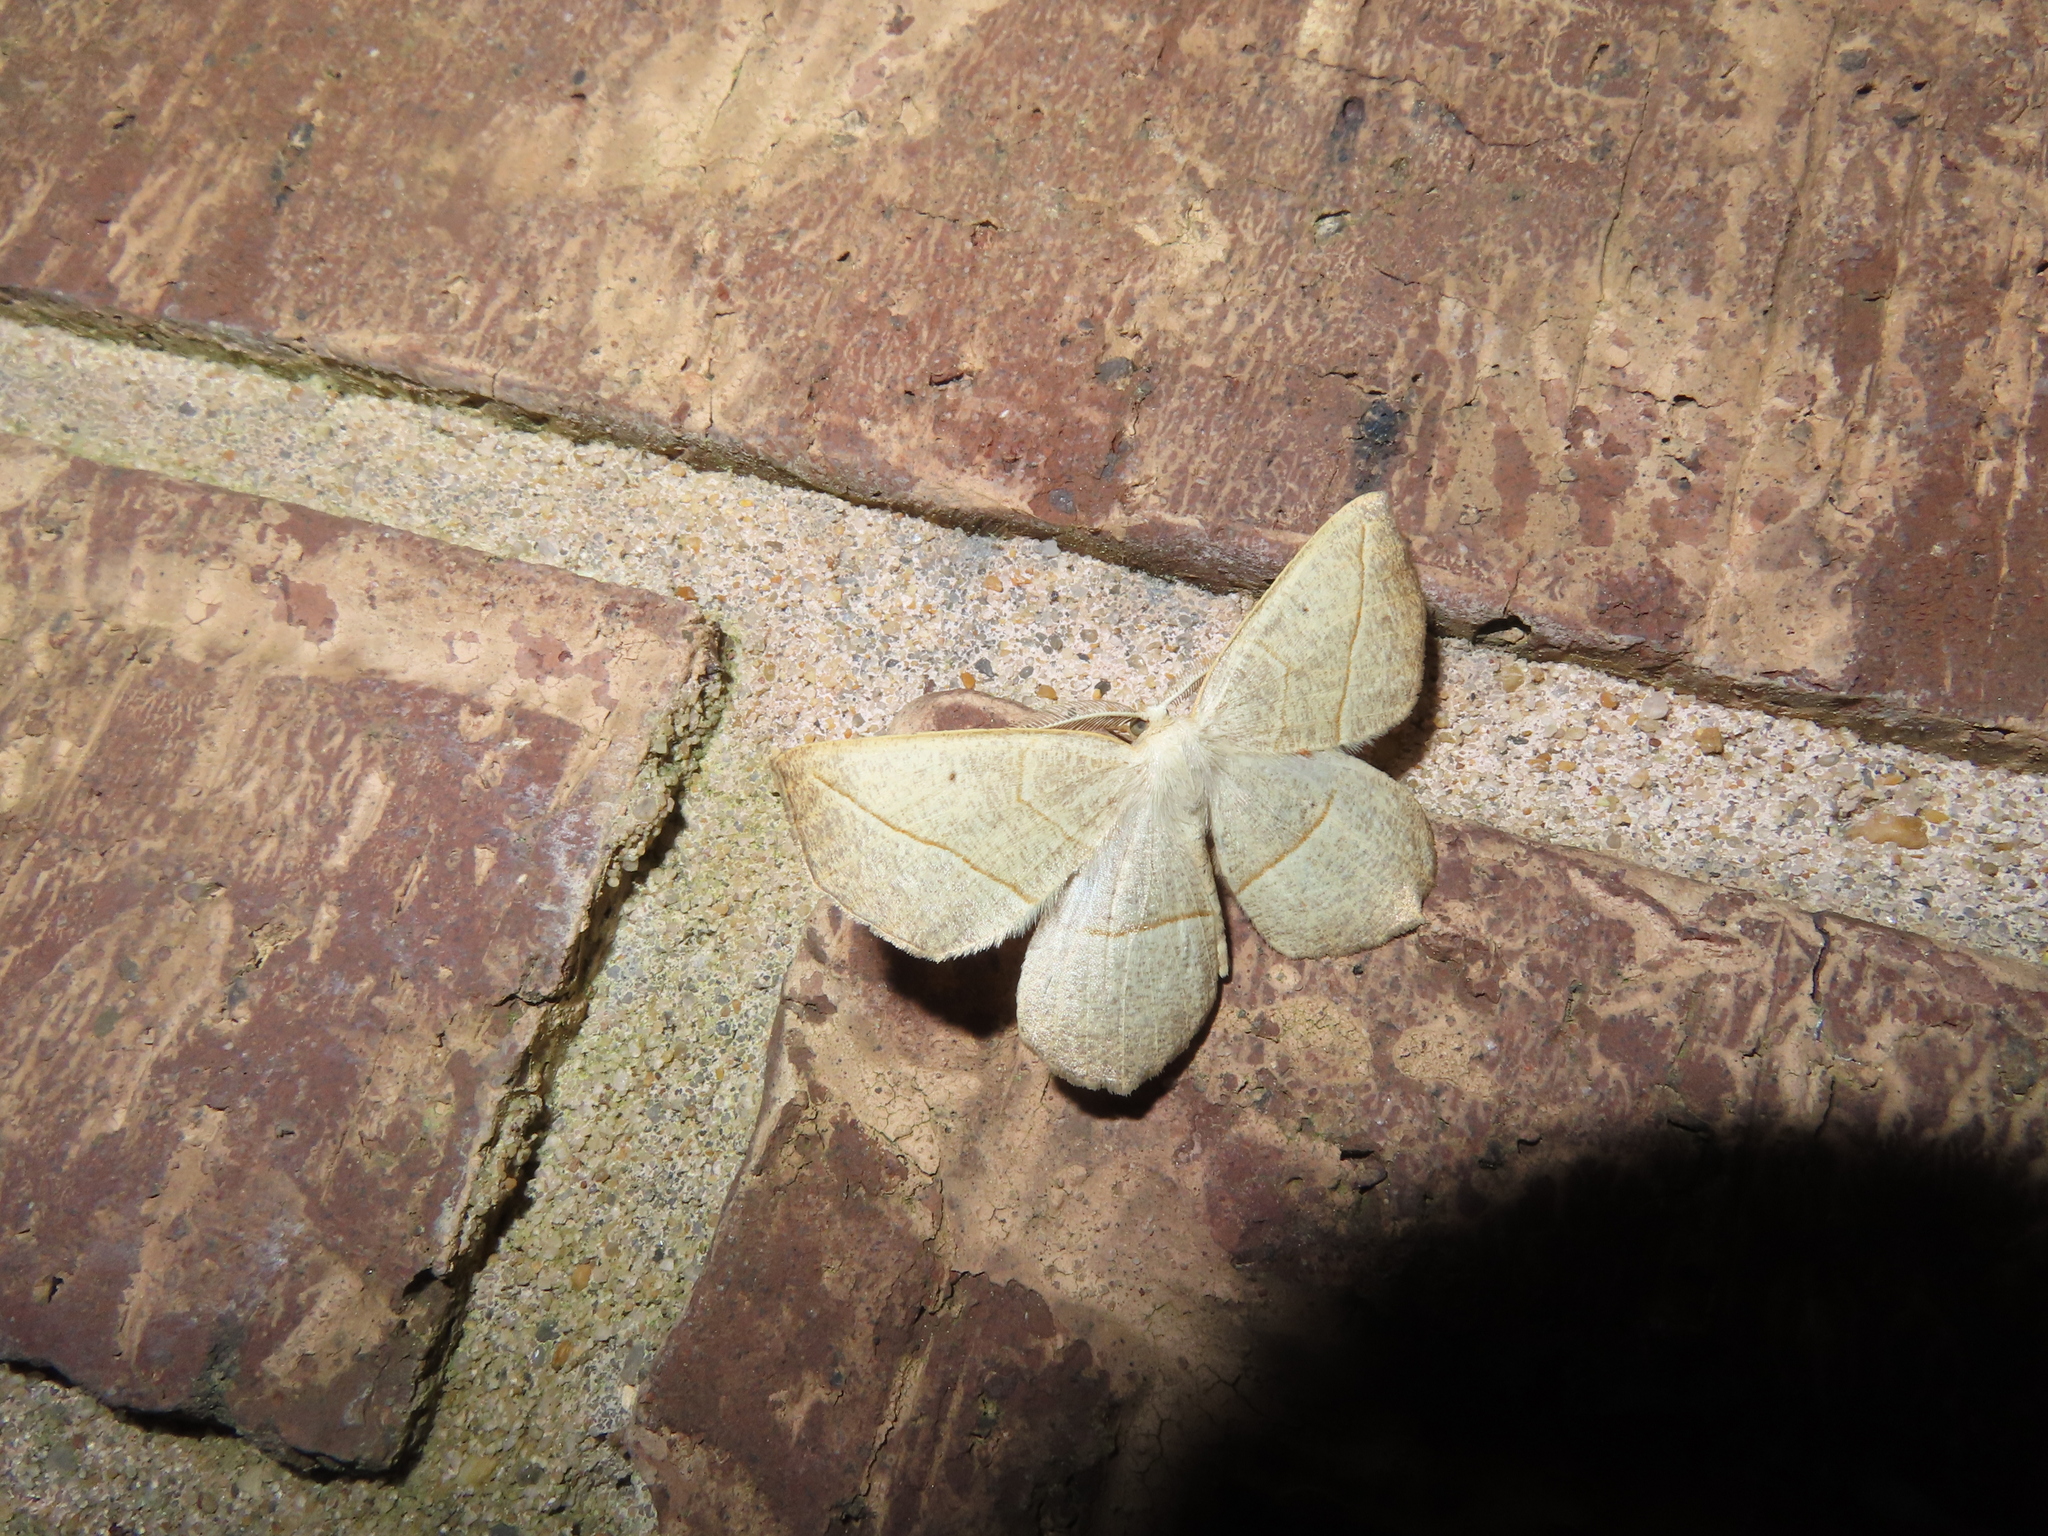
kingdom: Animalia
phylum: Arthropoda
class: Insecta
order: Lepidoptera
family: Geometridae
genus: Eusarca
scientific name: Eusarca confusaria
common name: Confused eusarca
